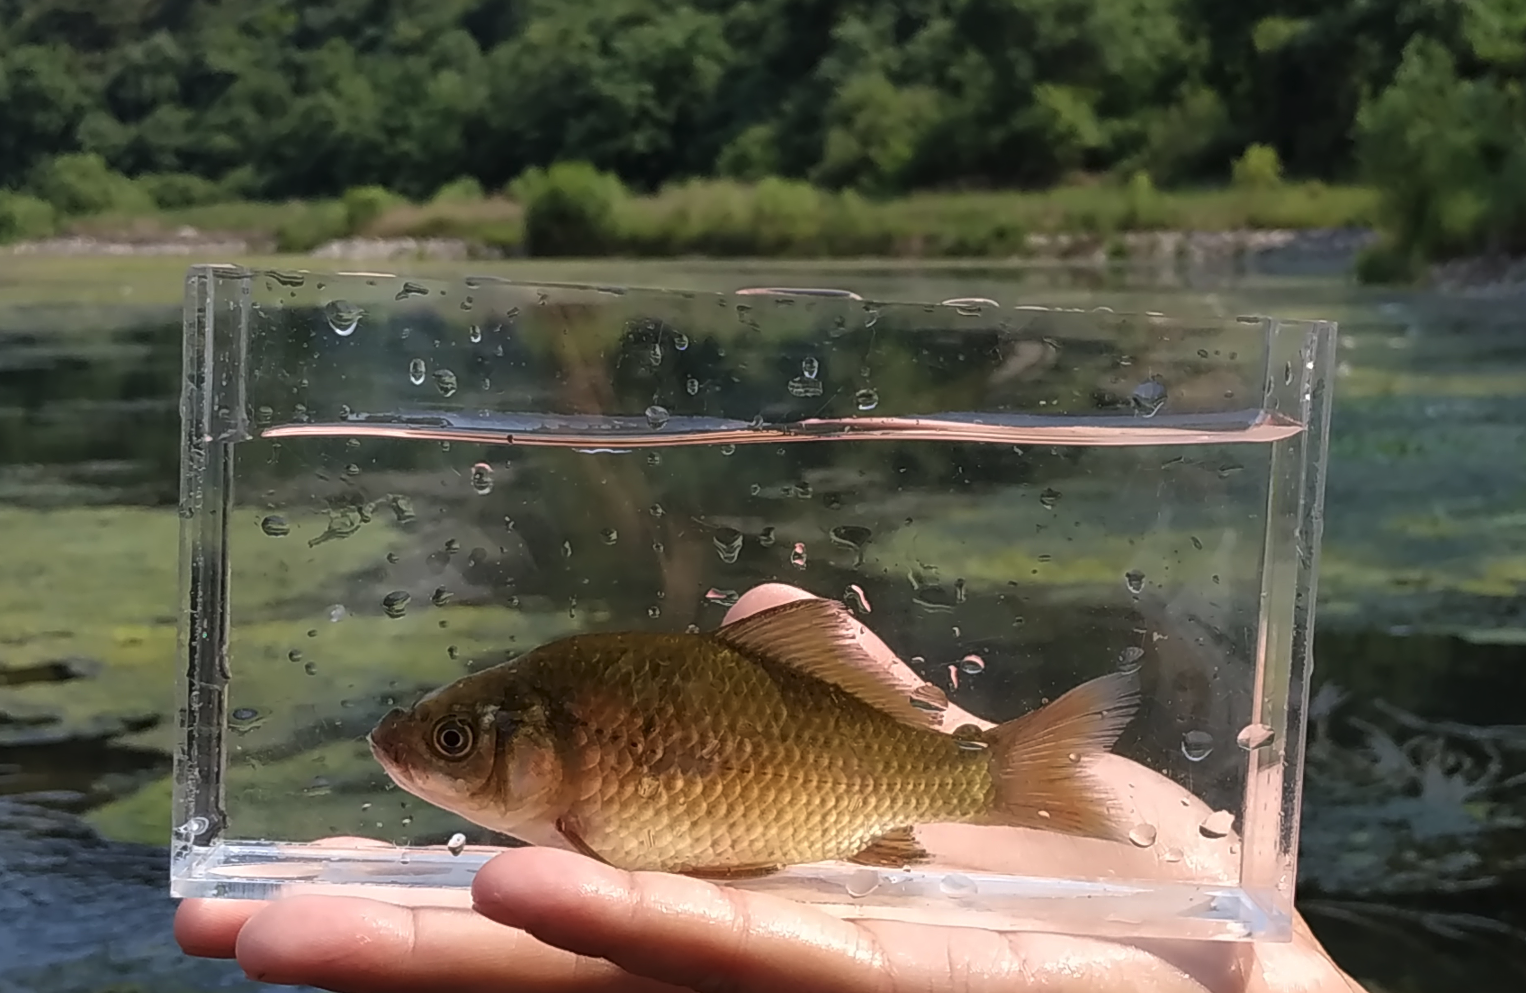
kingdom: Animalia
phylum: Chordata
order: Cypriniformes
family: Cyprinidae
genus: Carassius
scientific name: Carassius auratus
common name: Goldfish
